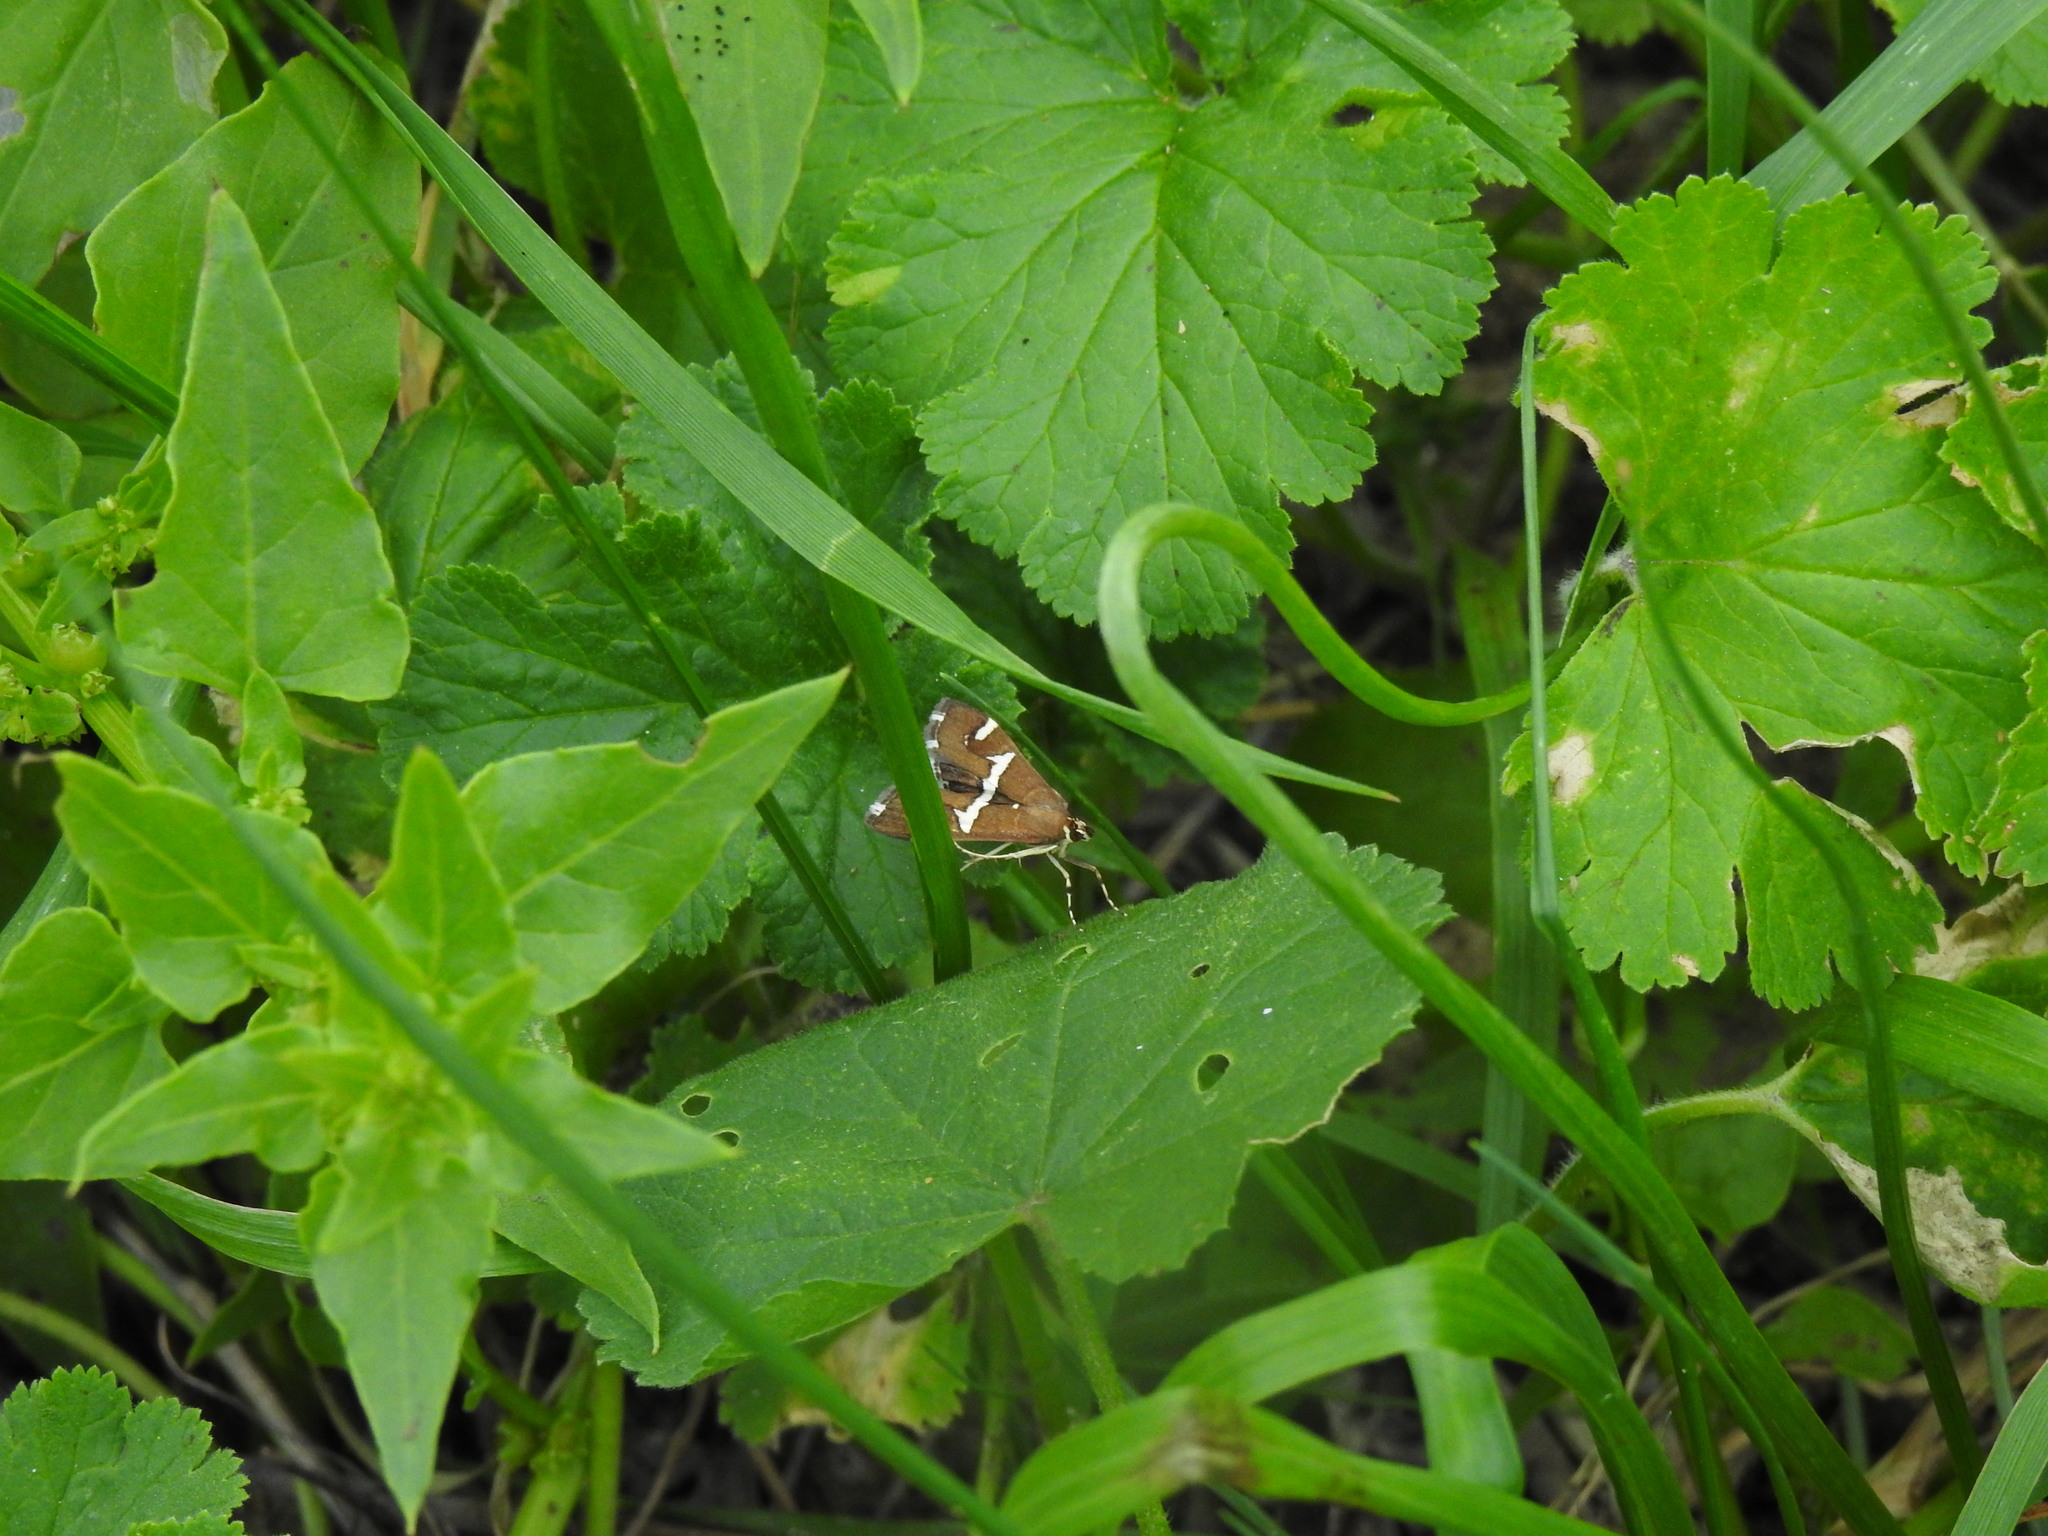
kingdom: Animalia
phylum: Arthropoda
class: Insecta
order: Lepidoptera
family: Crambidae
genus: Spoladea
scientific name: Spoladea recurvalis
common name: Beet webworm moth
